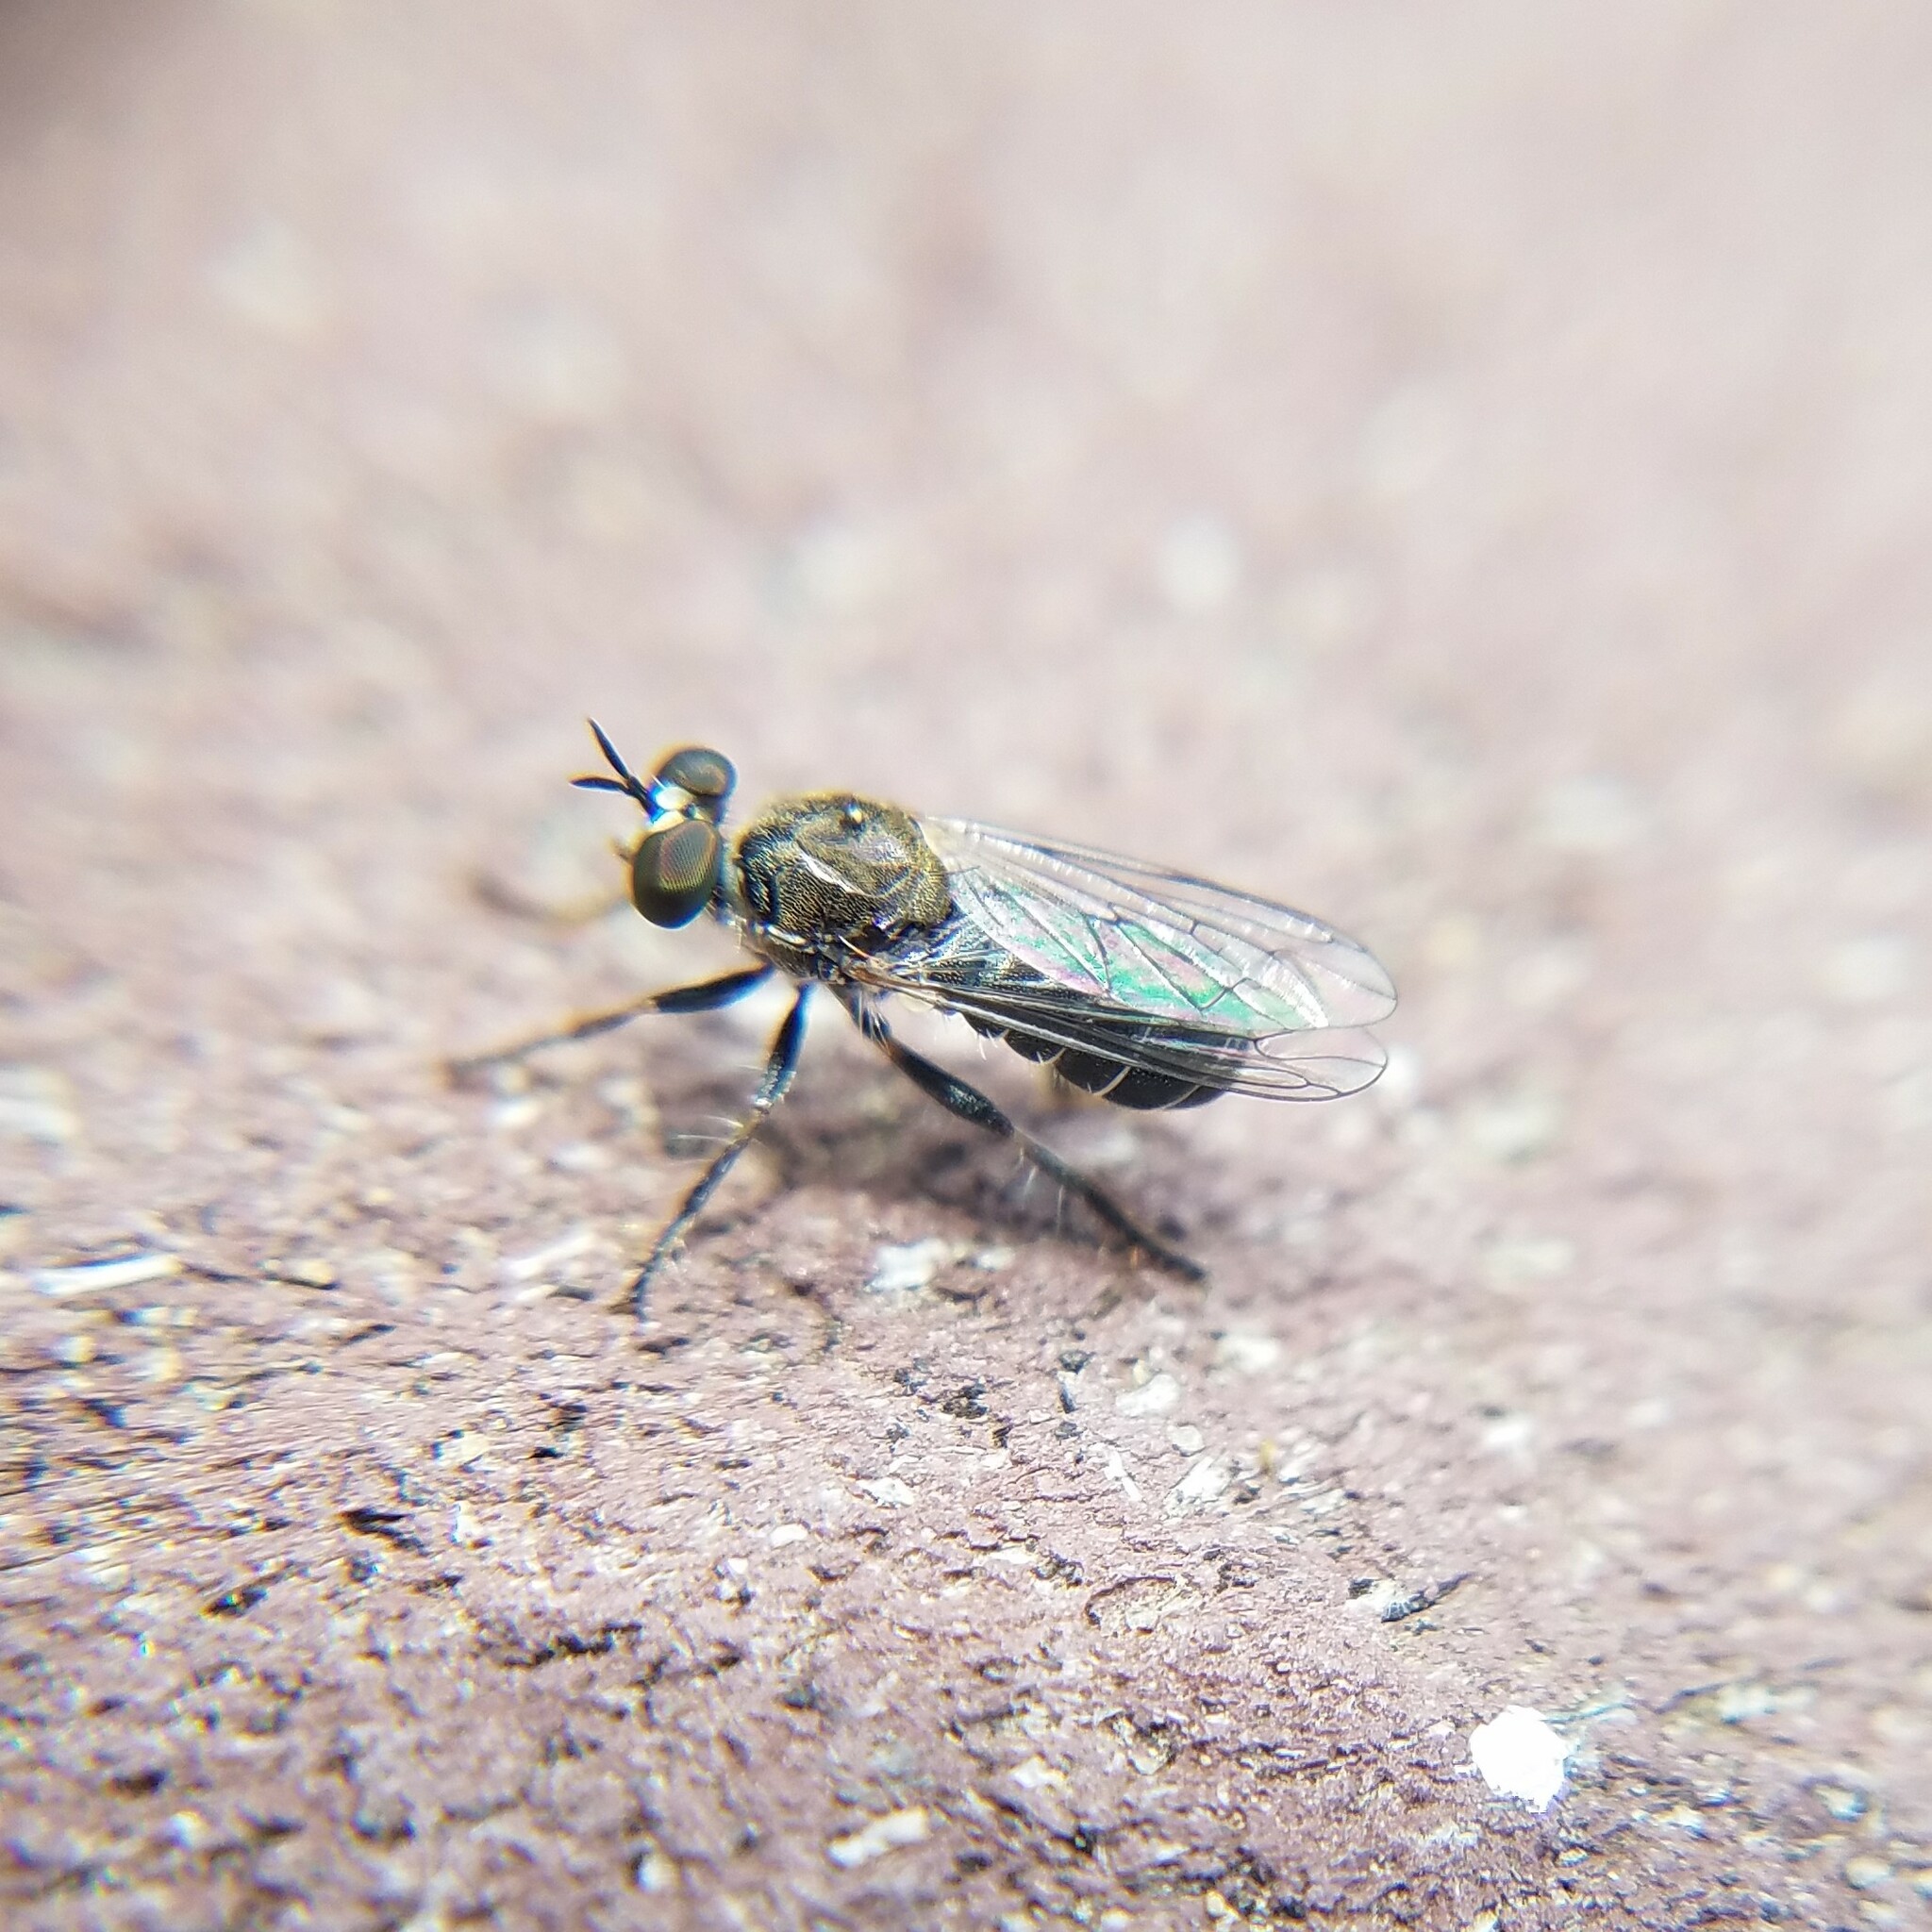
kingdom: Animalia
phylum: Arthropoda
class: Insecta
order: Diptera
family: Asilidae
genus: Atomosia
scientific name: Atomosia puella
